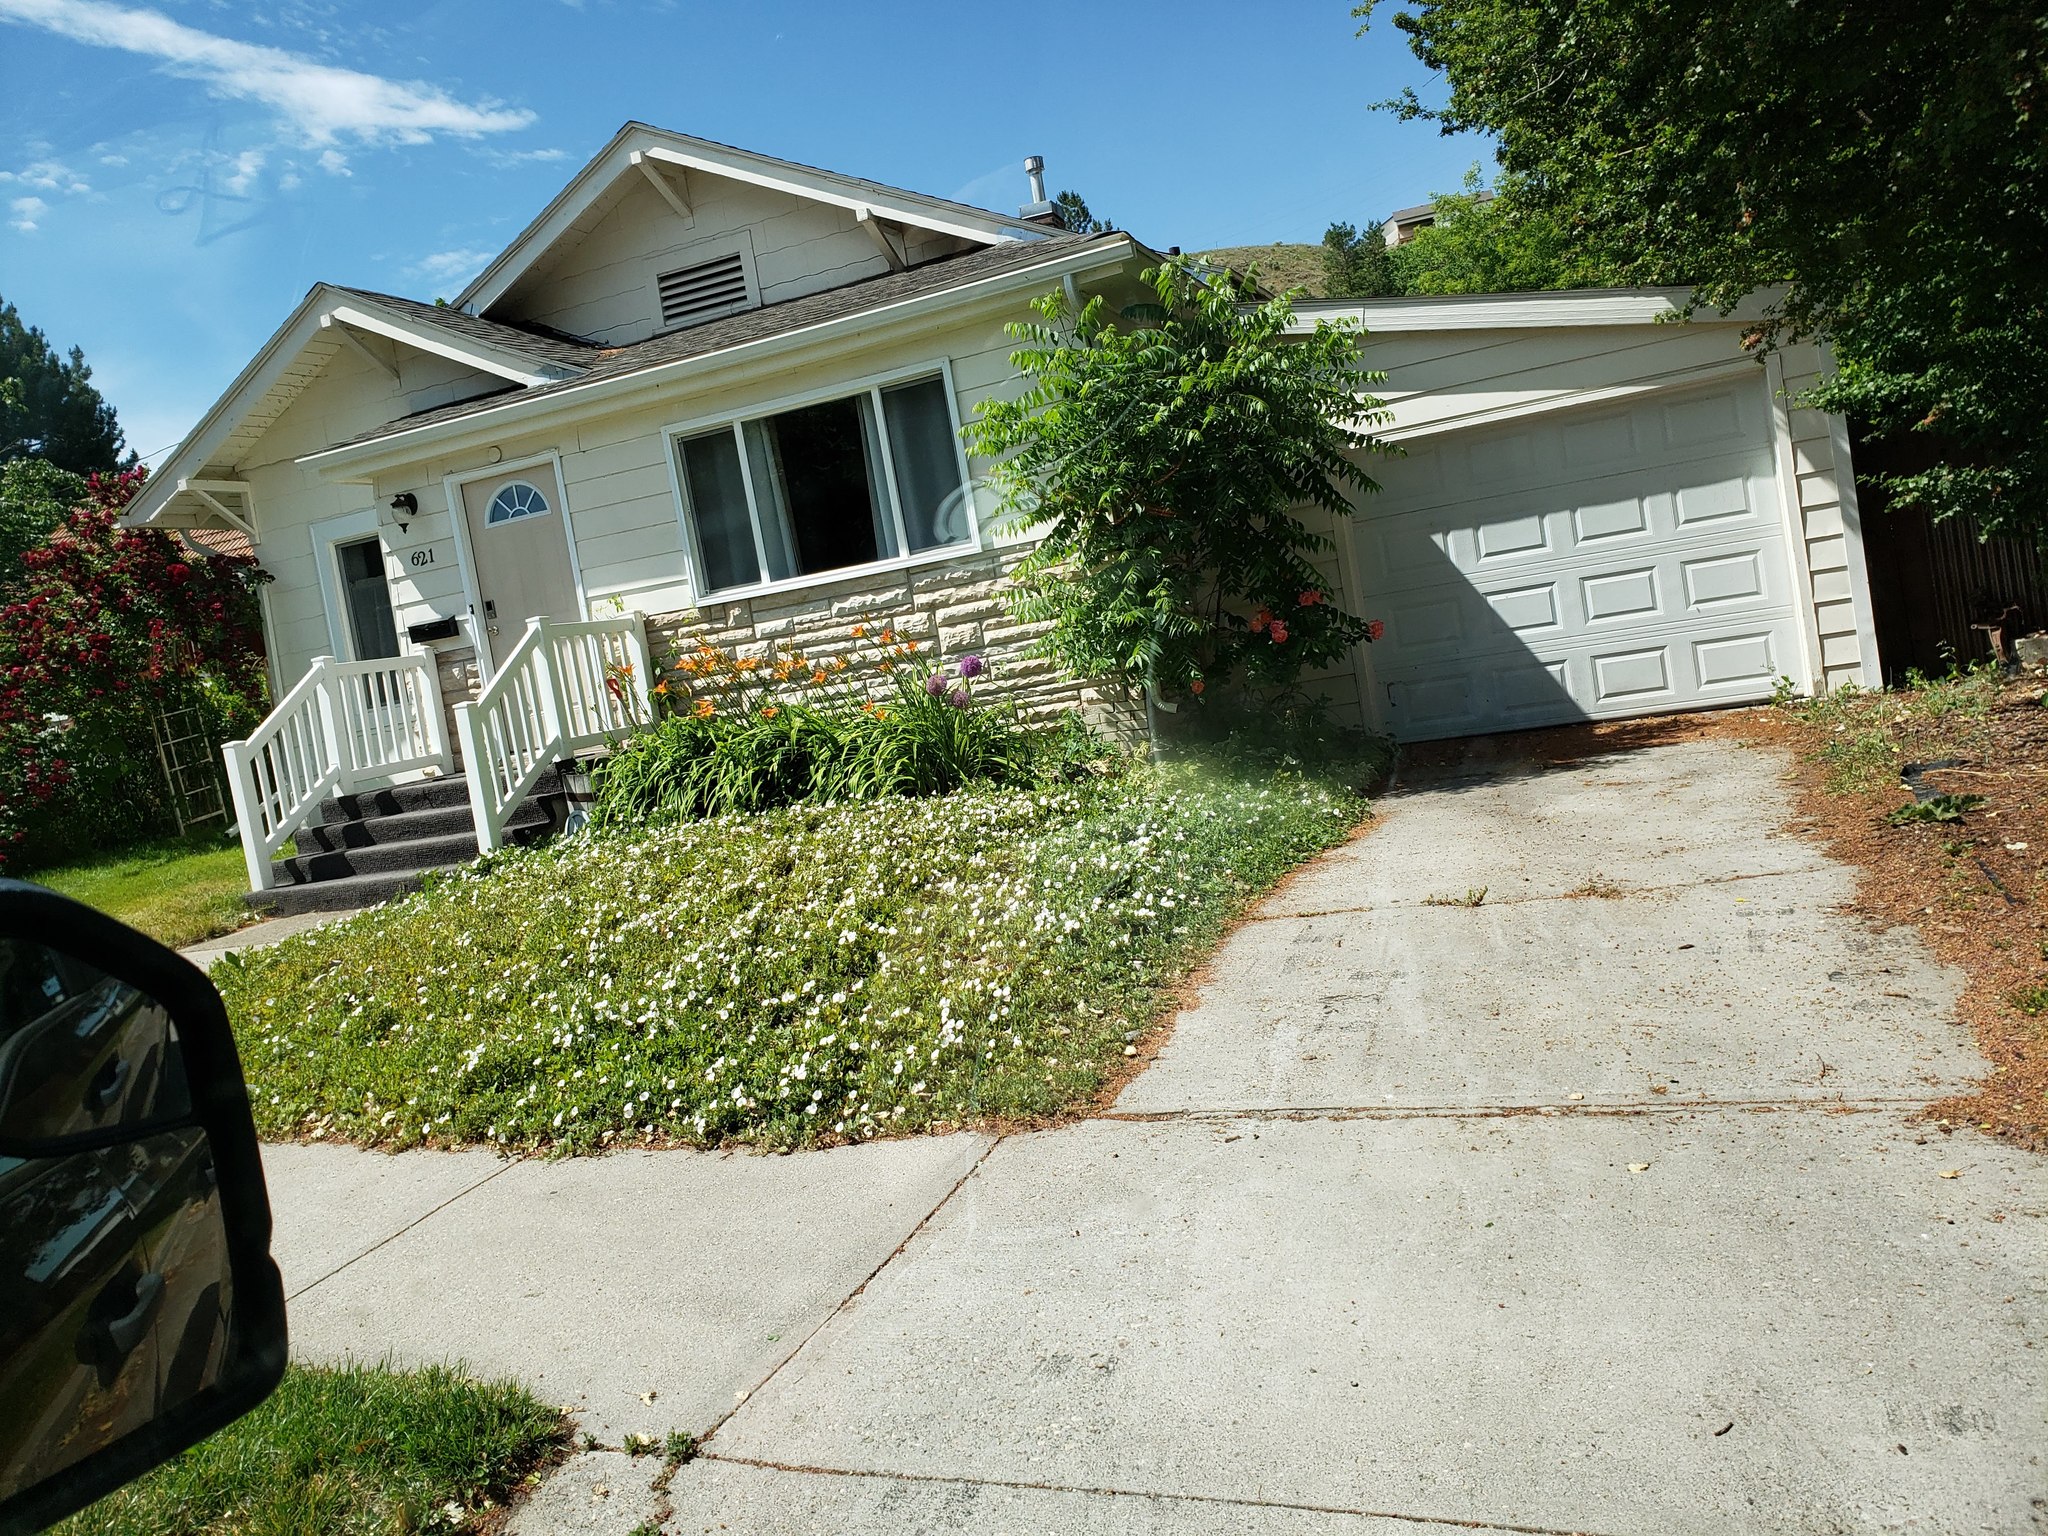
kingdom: Plantae
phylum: Tracheophyta
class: Magnoliopsida
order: Solanales
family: Convolvulaceae
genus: Convolvulus
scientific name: Convolvulus arvensis
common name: Field bindweed
